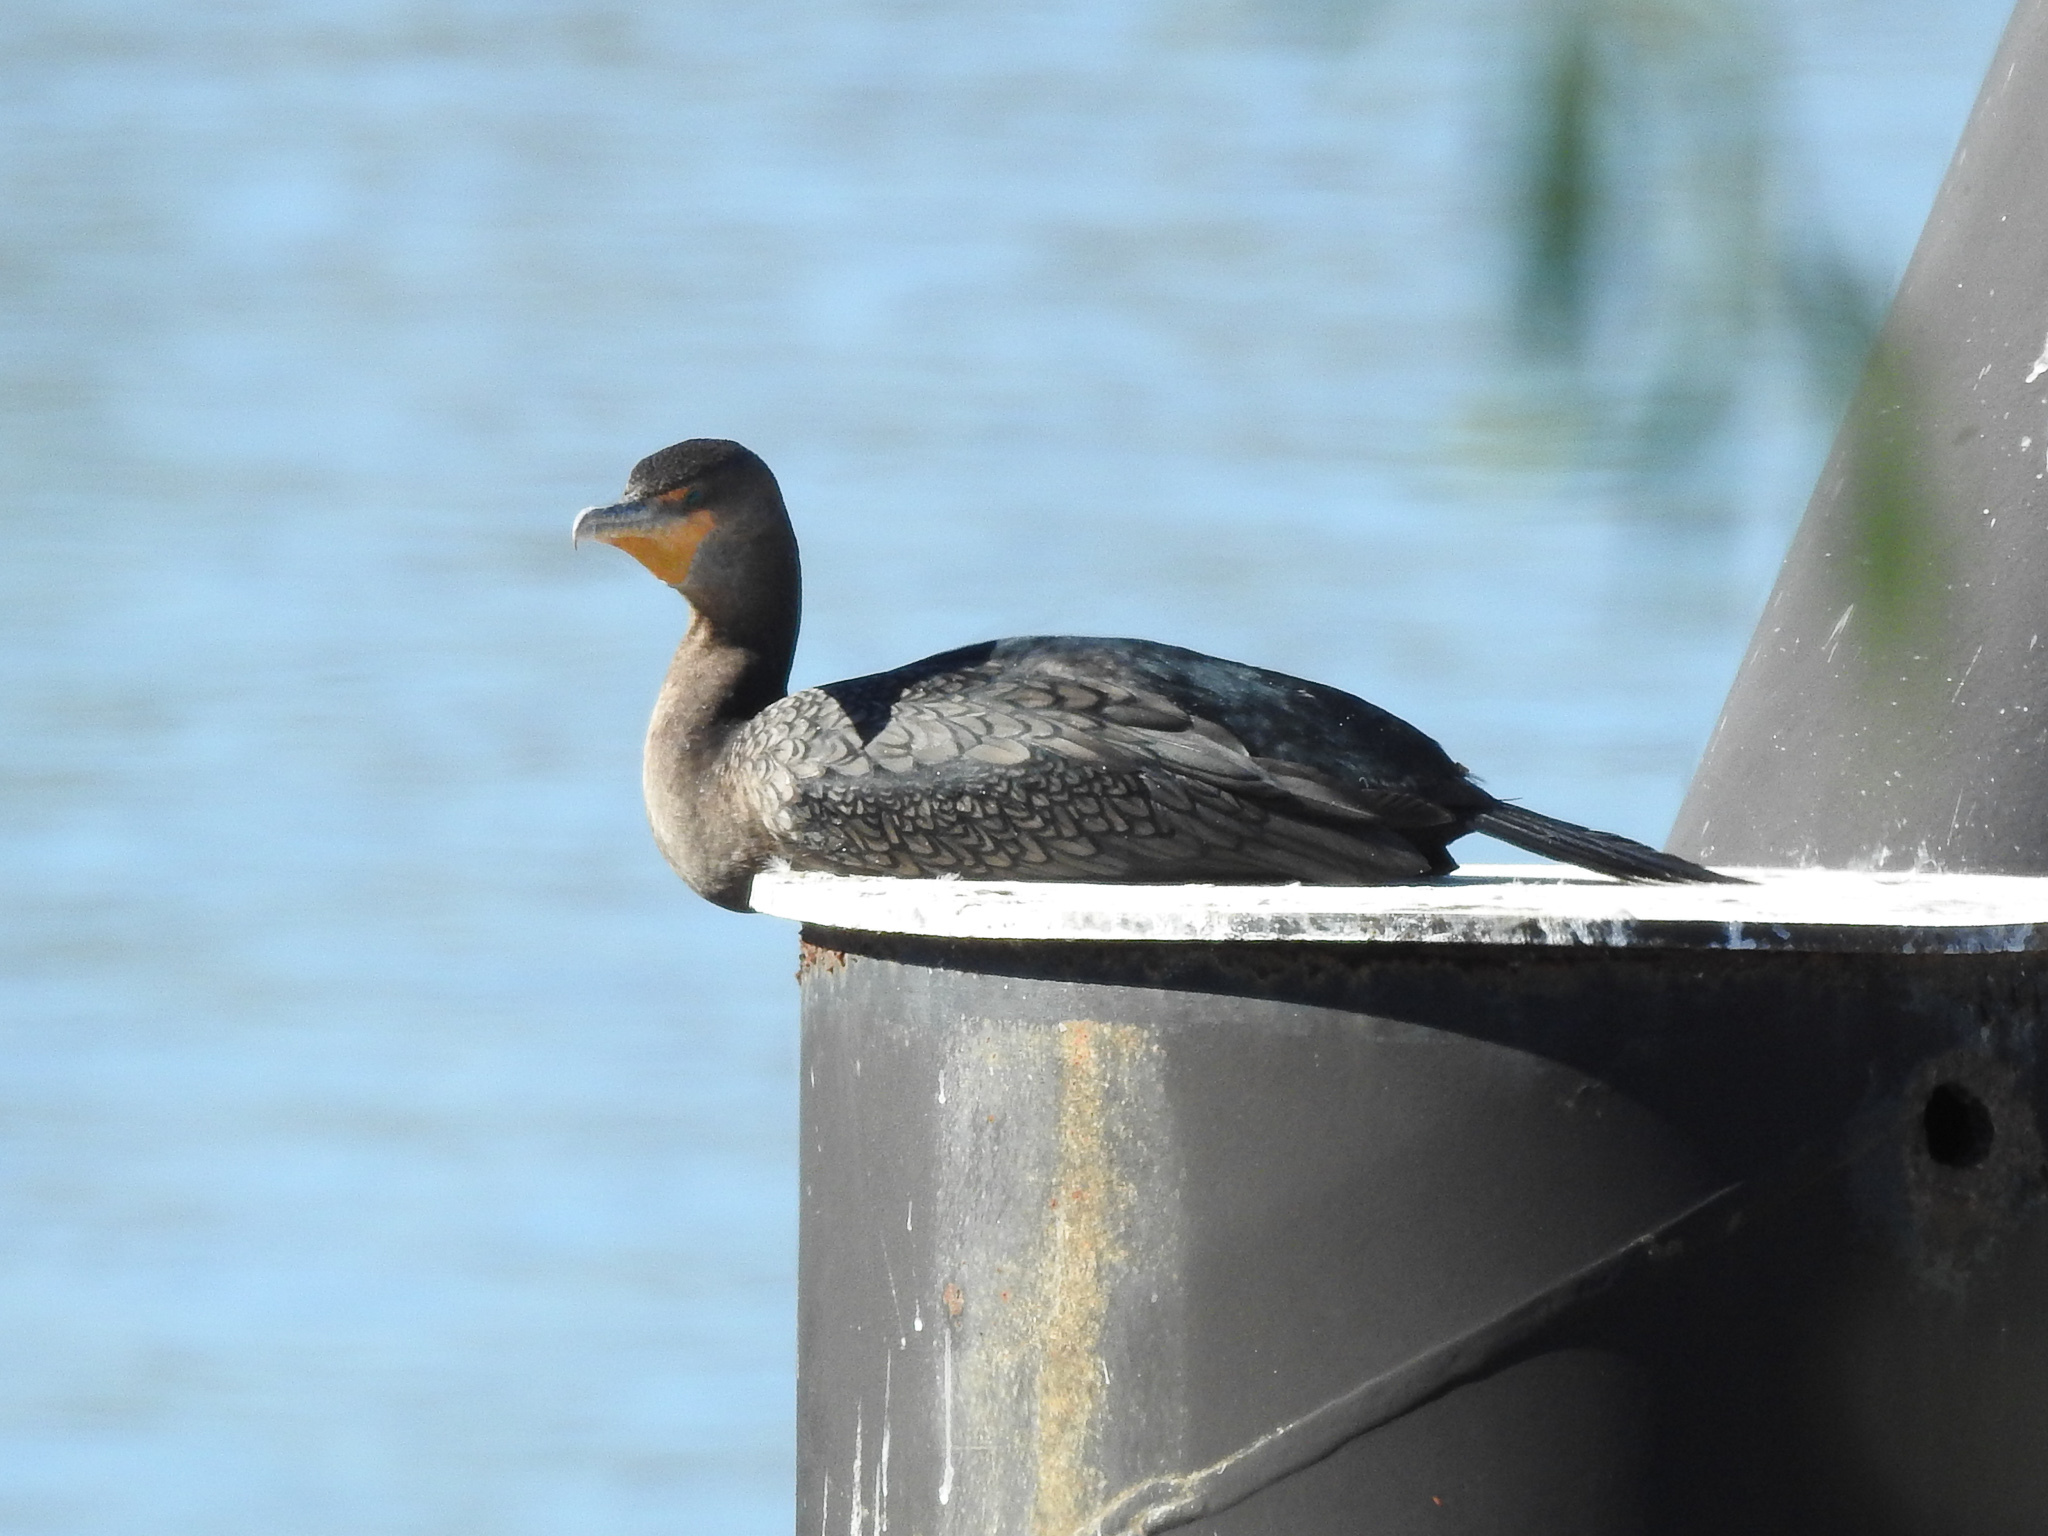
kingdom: Animalia
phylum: Chordata
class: Aves
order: Suliformes
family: Phalacrocoracidae
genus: Phalacrocorax
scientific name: Phalacrocorax auritus
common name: Double-crested cormorant
